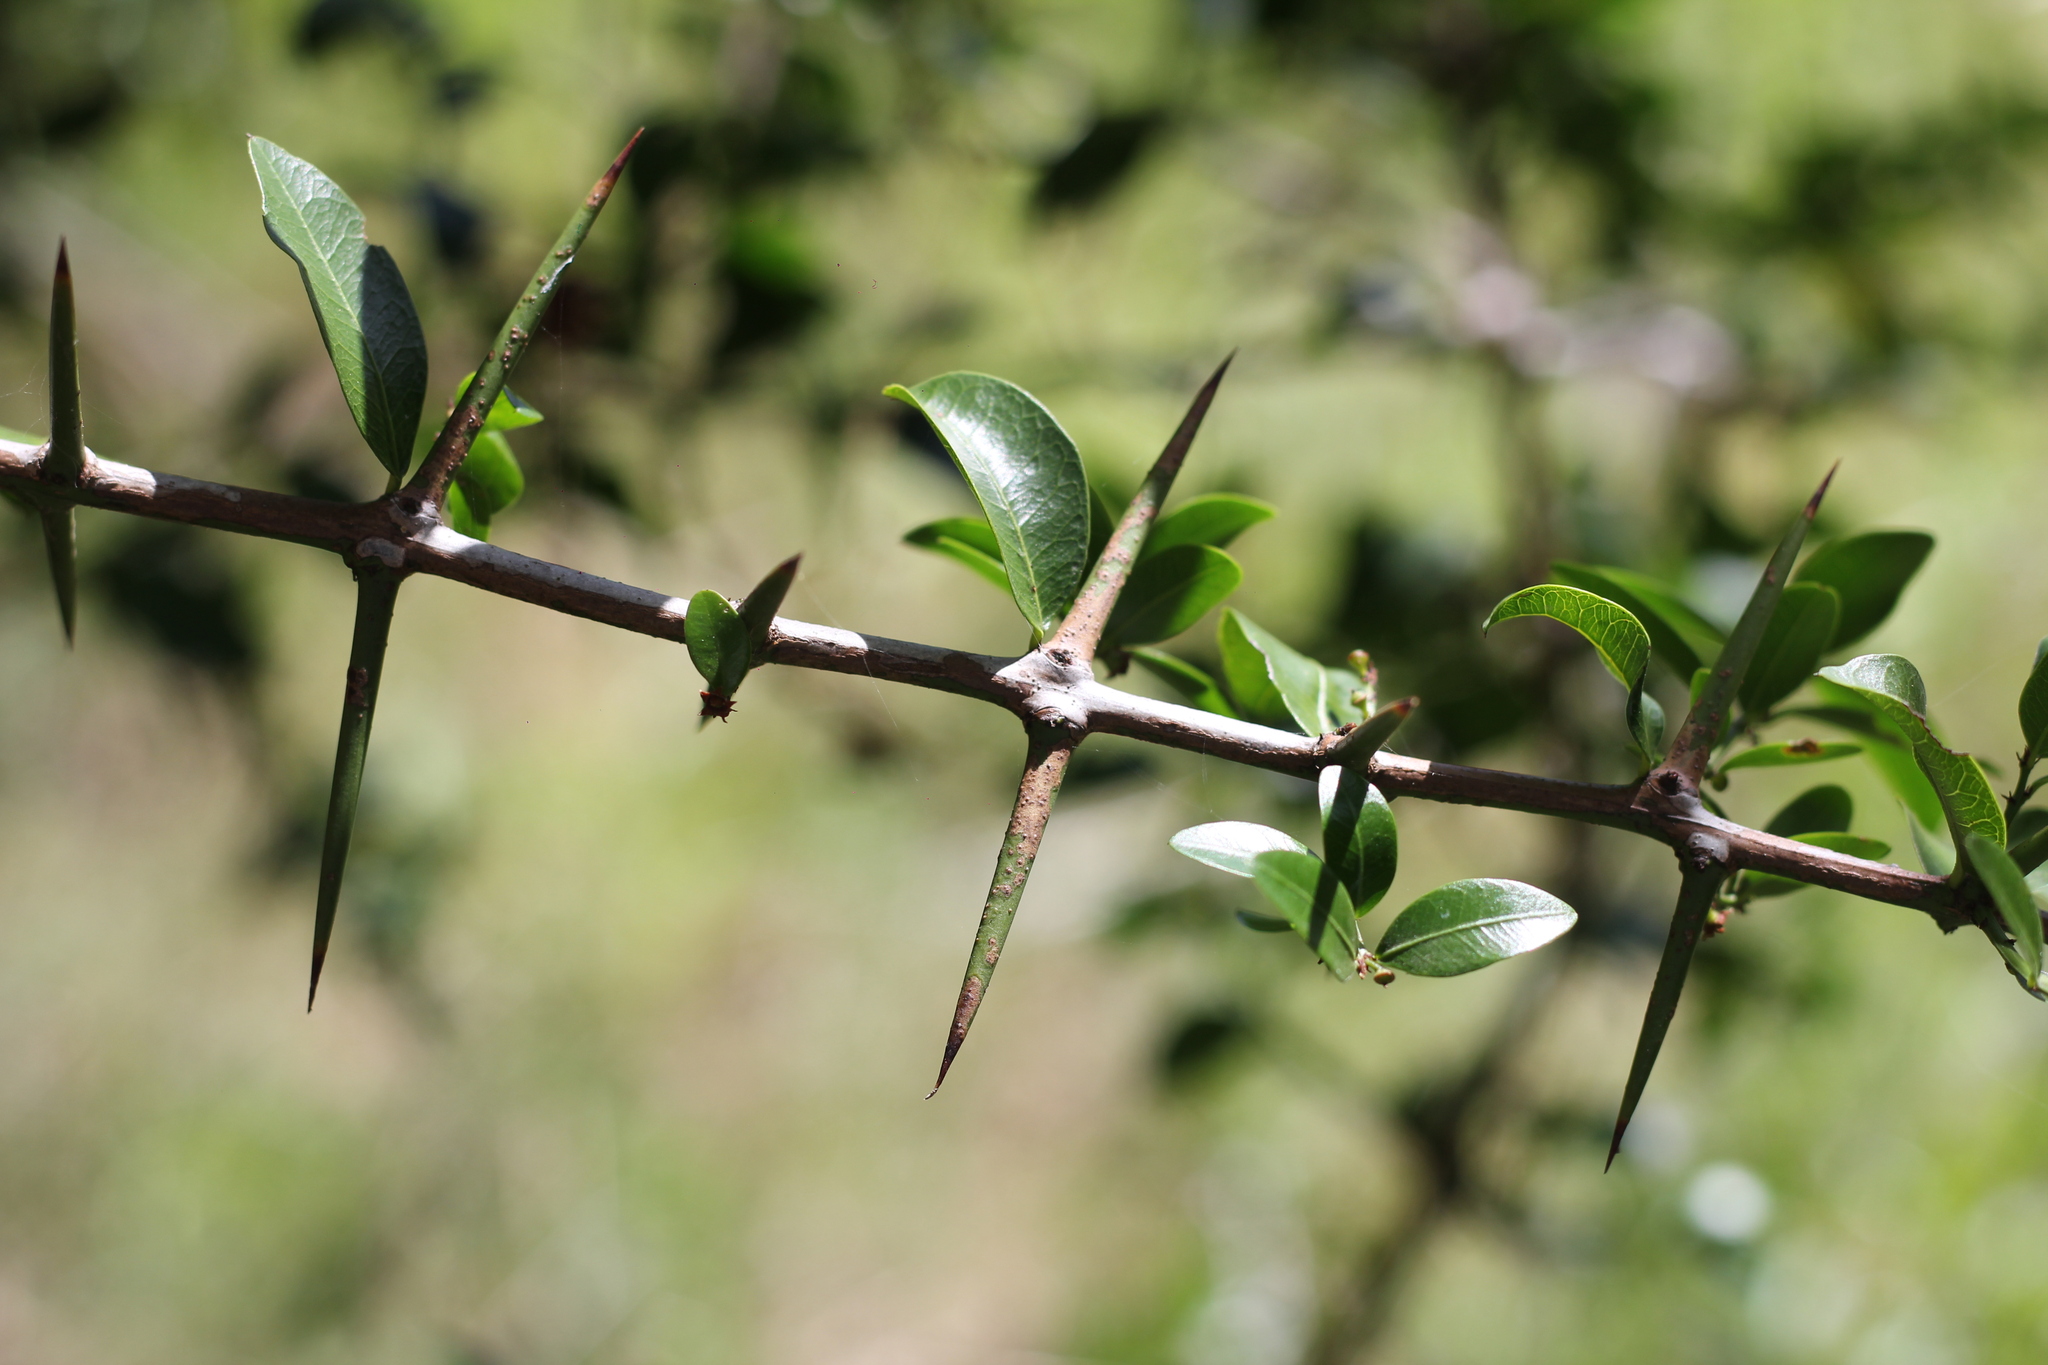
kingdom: Plantae
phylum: Tracheophyta
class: Magnoliopsida
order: Rosales
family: Rhamnaceae
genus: Scutia
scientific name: Scutia buxifolia
